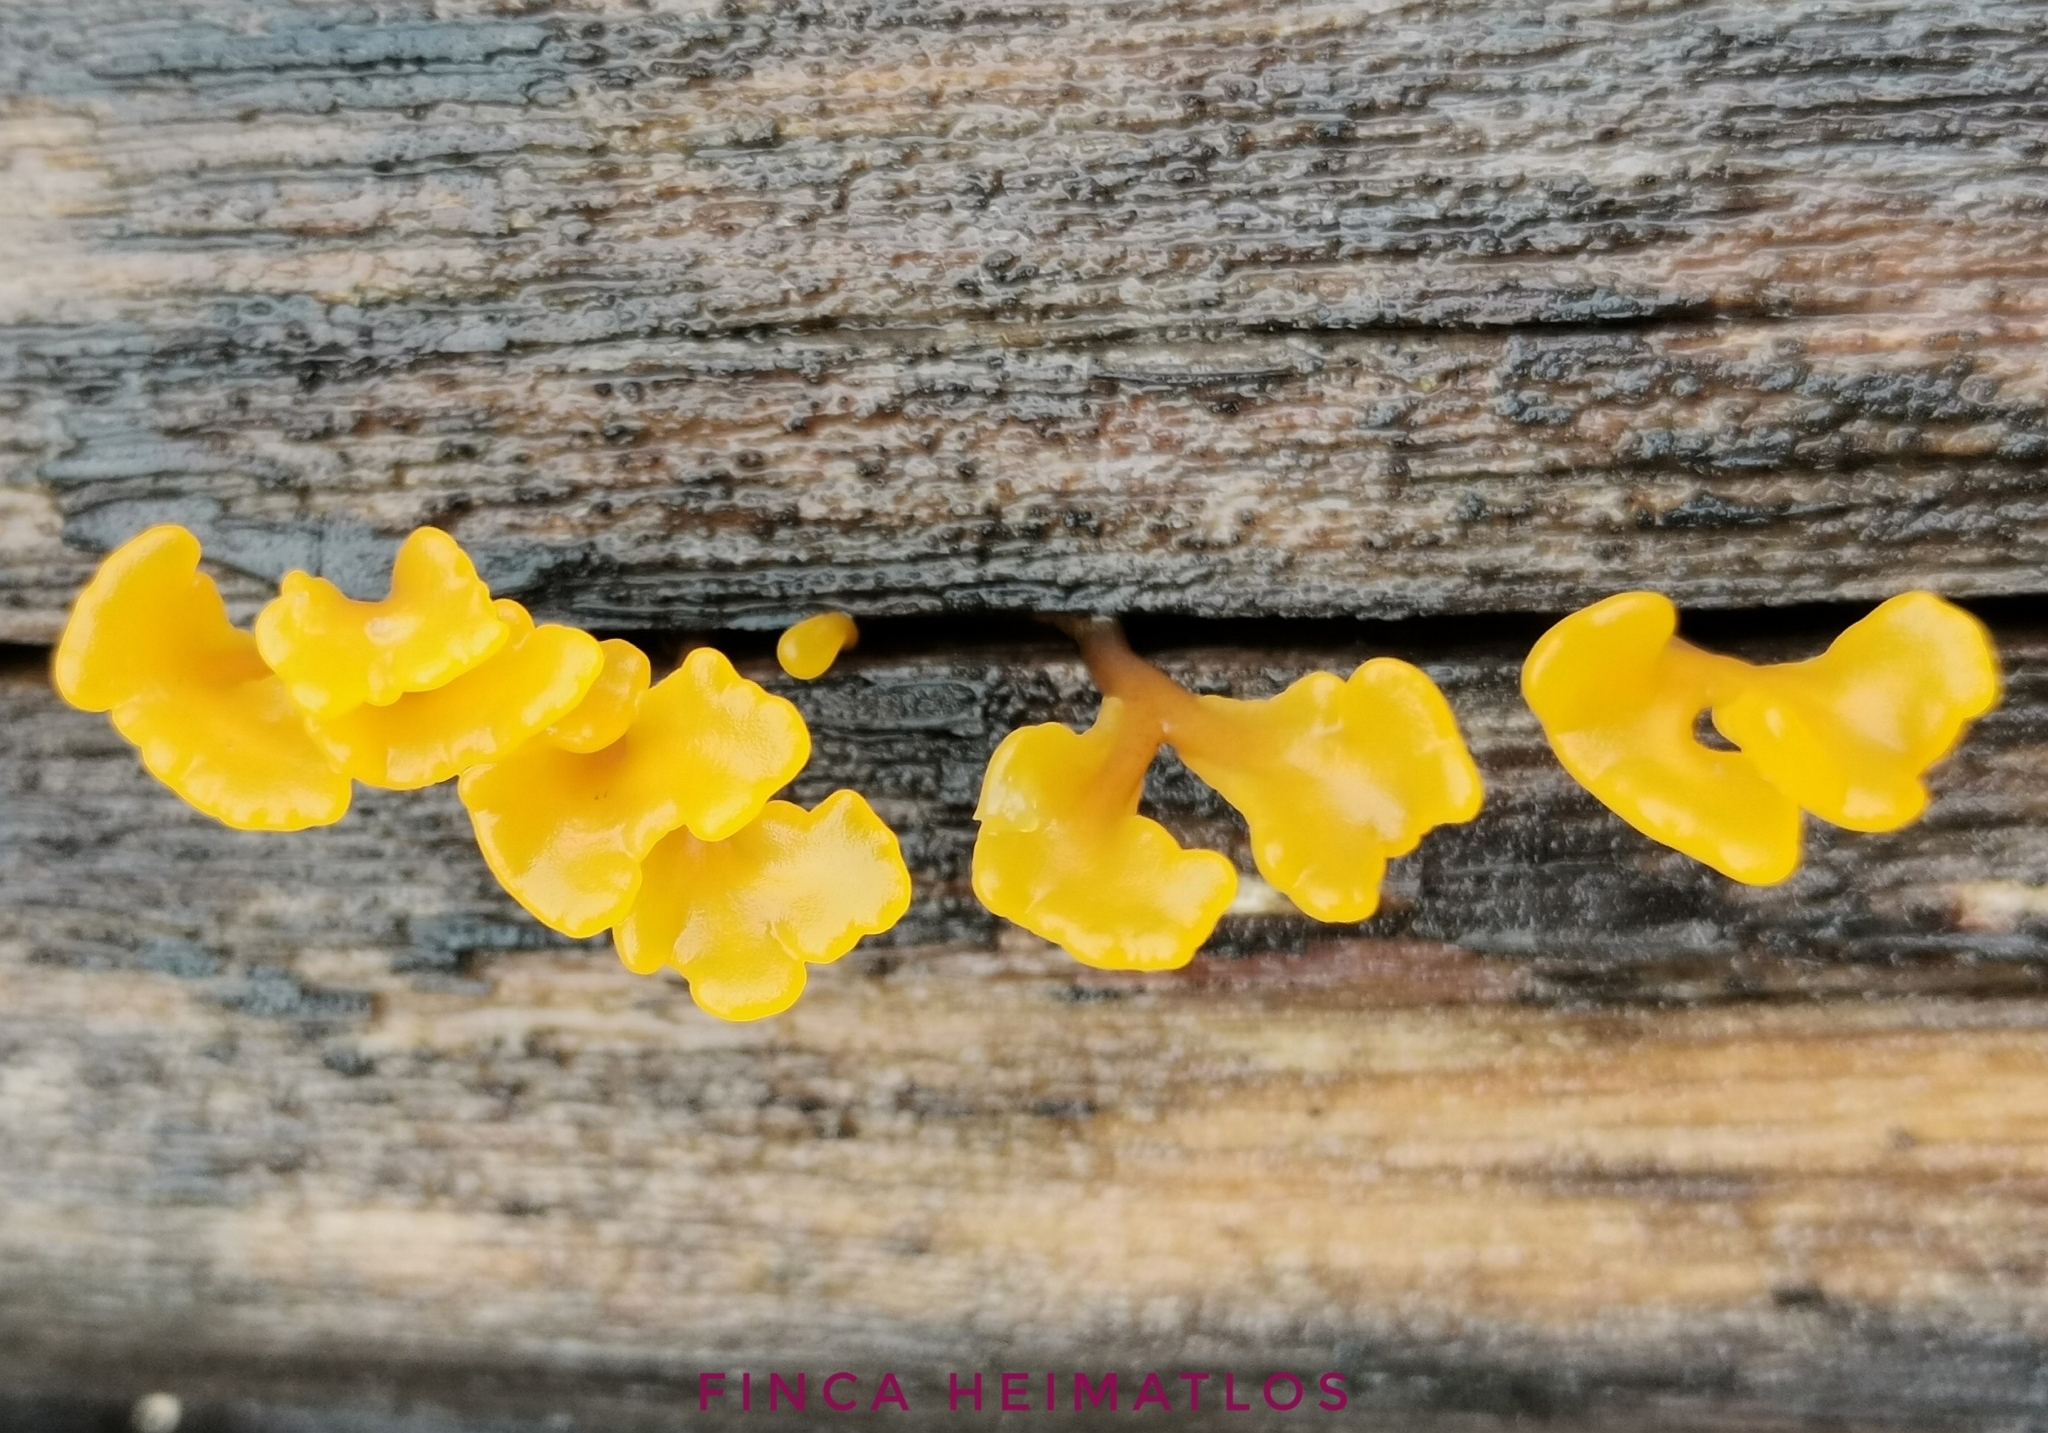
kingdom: Fungi
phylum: Basidiomycota
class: Dacrymycetes
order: Dacrymycetales
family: Dacrymycetaceae
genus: Dacrymyces
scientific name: Dacrymyces spathularius
